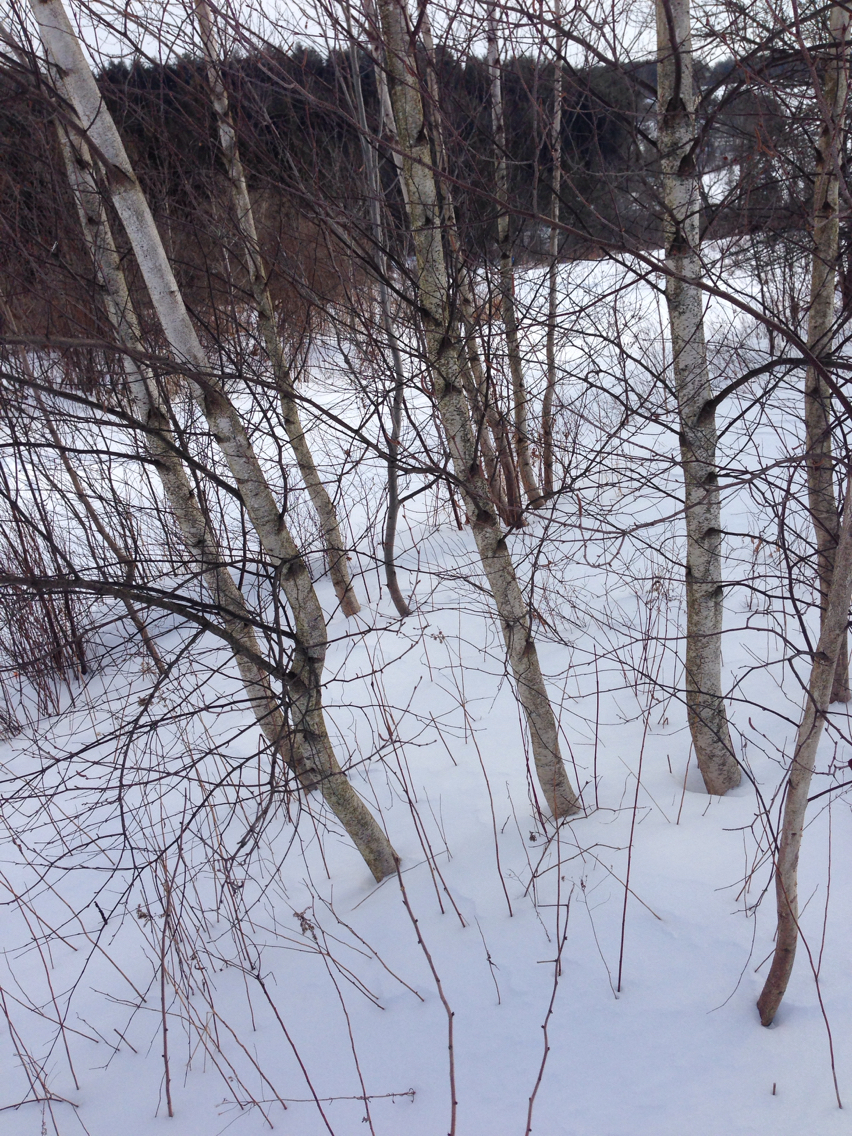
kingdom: Plantae
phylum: Tracheophyta
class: Magnoliopsida
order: Fagales
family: Betulaceae
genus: Betula
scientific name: Betula populifolia
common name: Fire birch
